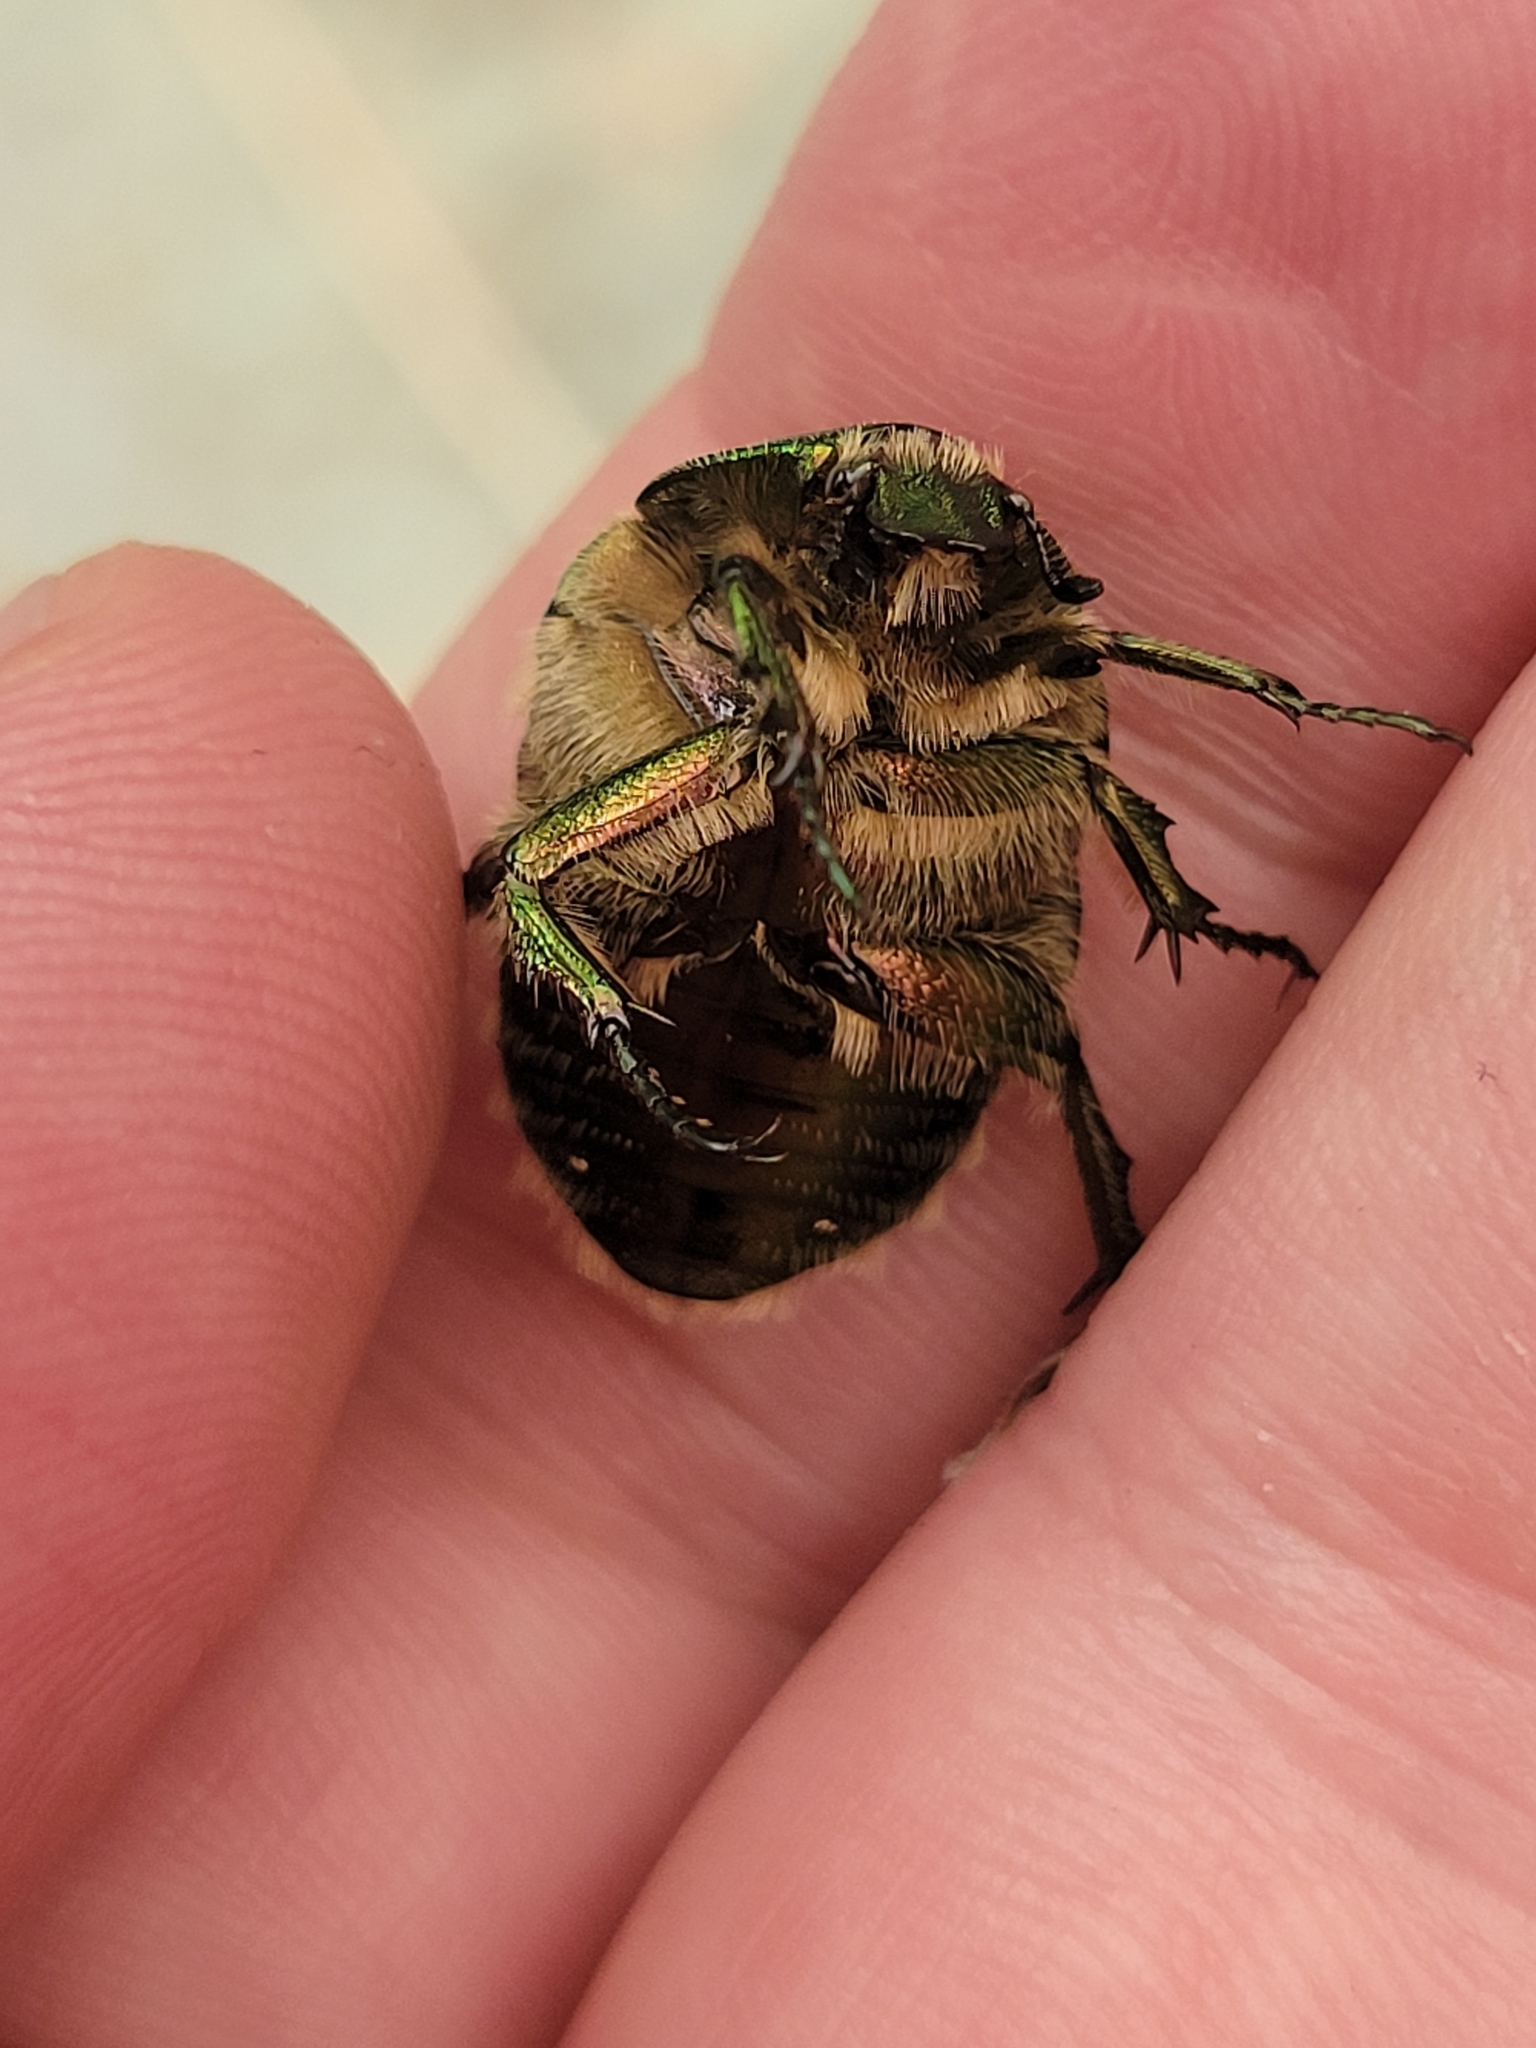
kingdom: Animalia
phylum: Arthropoda
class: Insecta
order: Coleoptera
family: Scarabaeidae
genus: Cetonia
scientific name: Cetonia aurata
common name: Rose chafer
